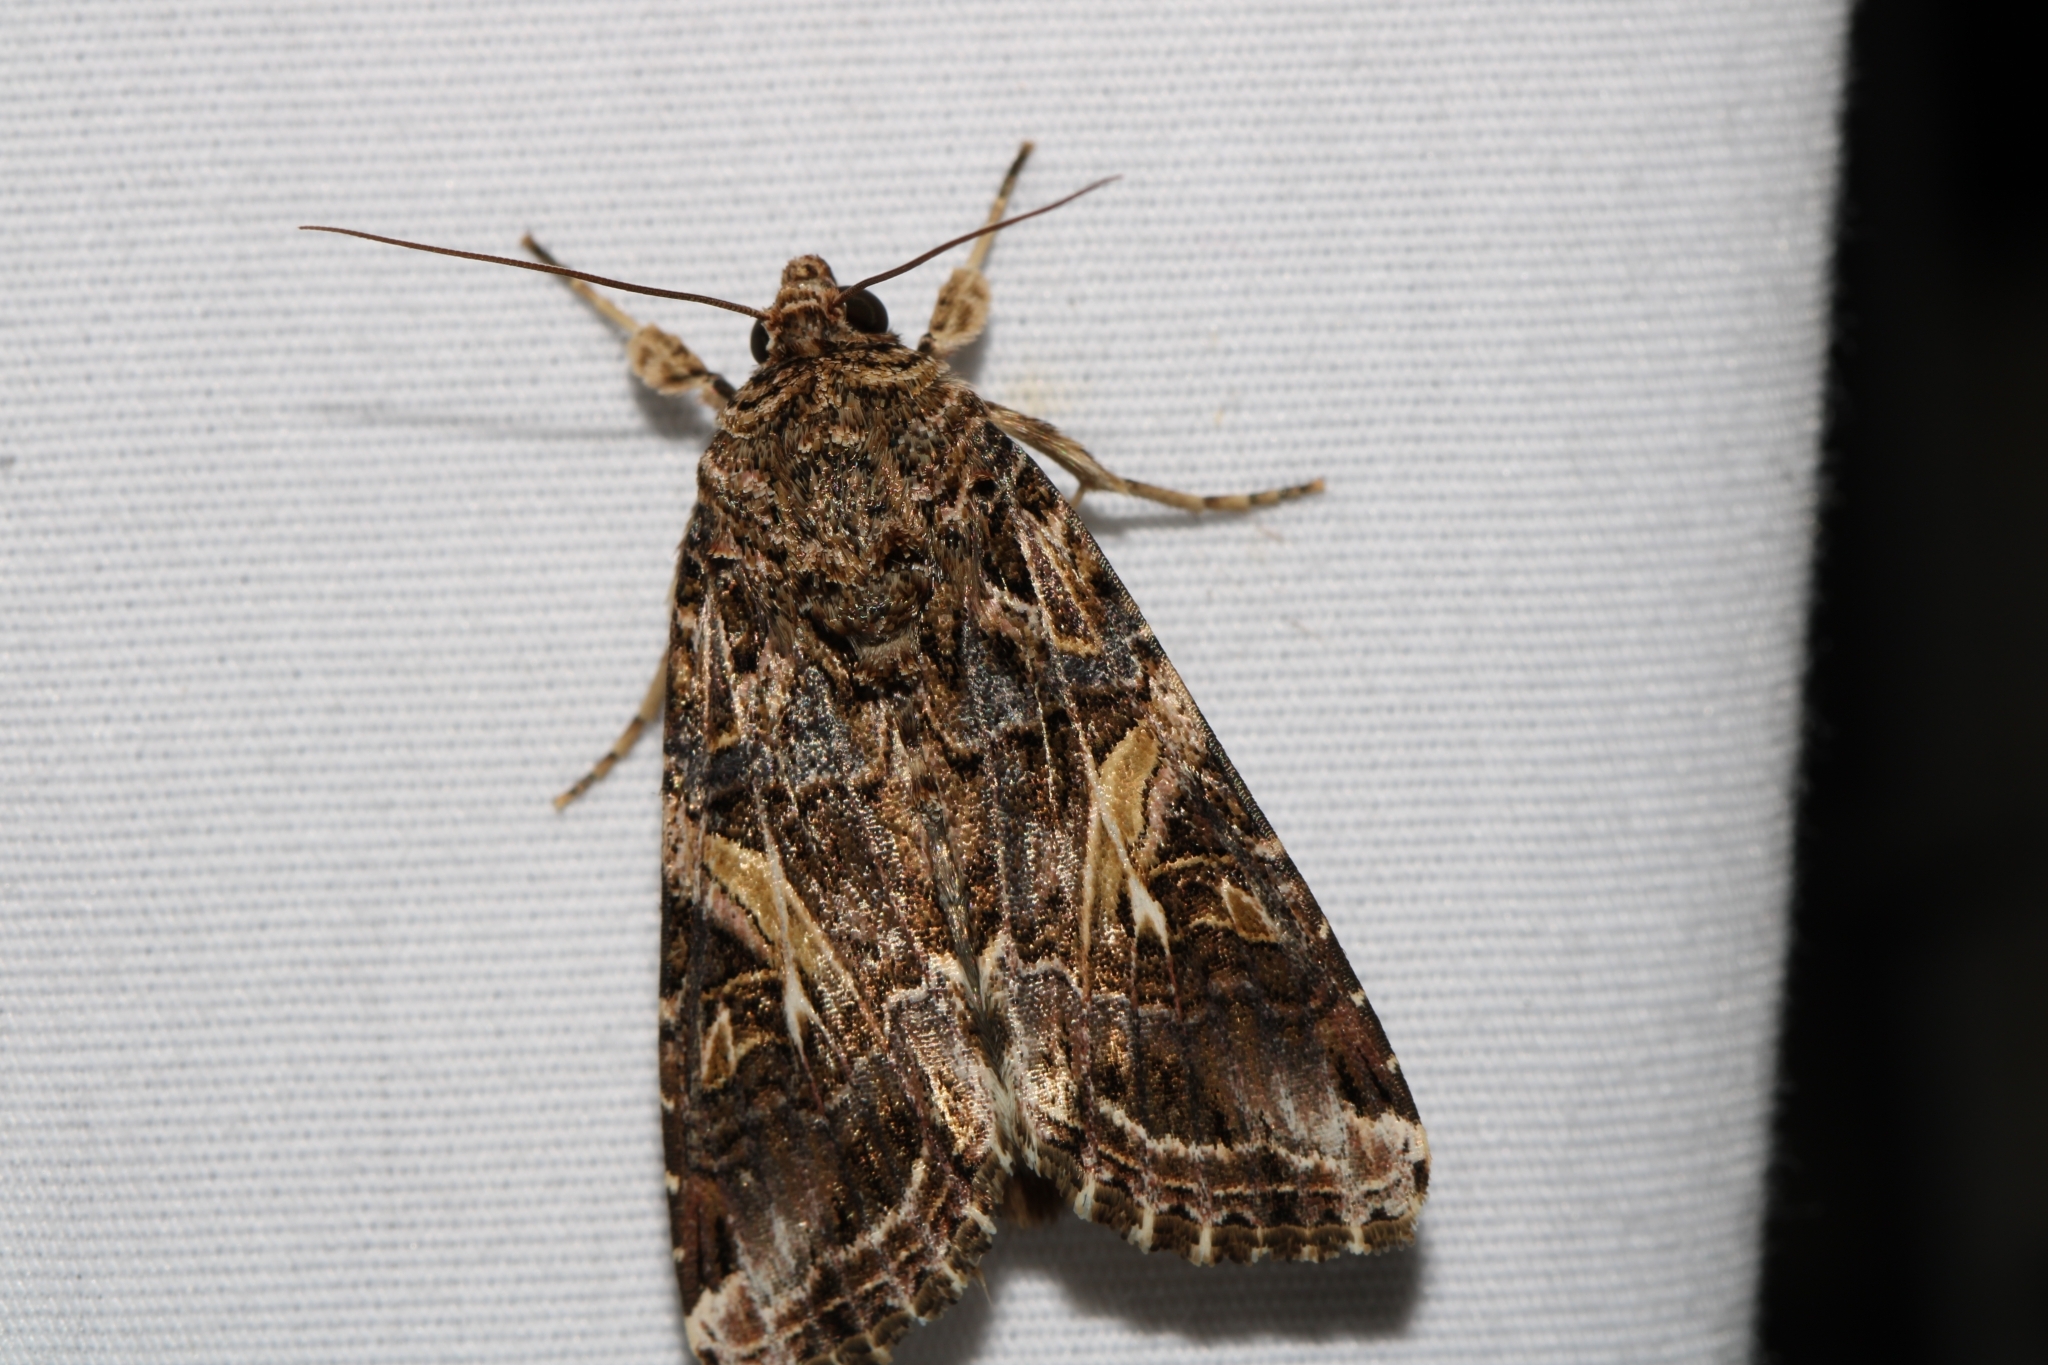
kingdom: Animalia
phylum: Arthropoda
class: Insecta
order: Lepidoptera
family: Noctuidae
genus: Spodoptera
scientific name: Spodoptera ornithogalli
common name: Yellow-striped armyworm
